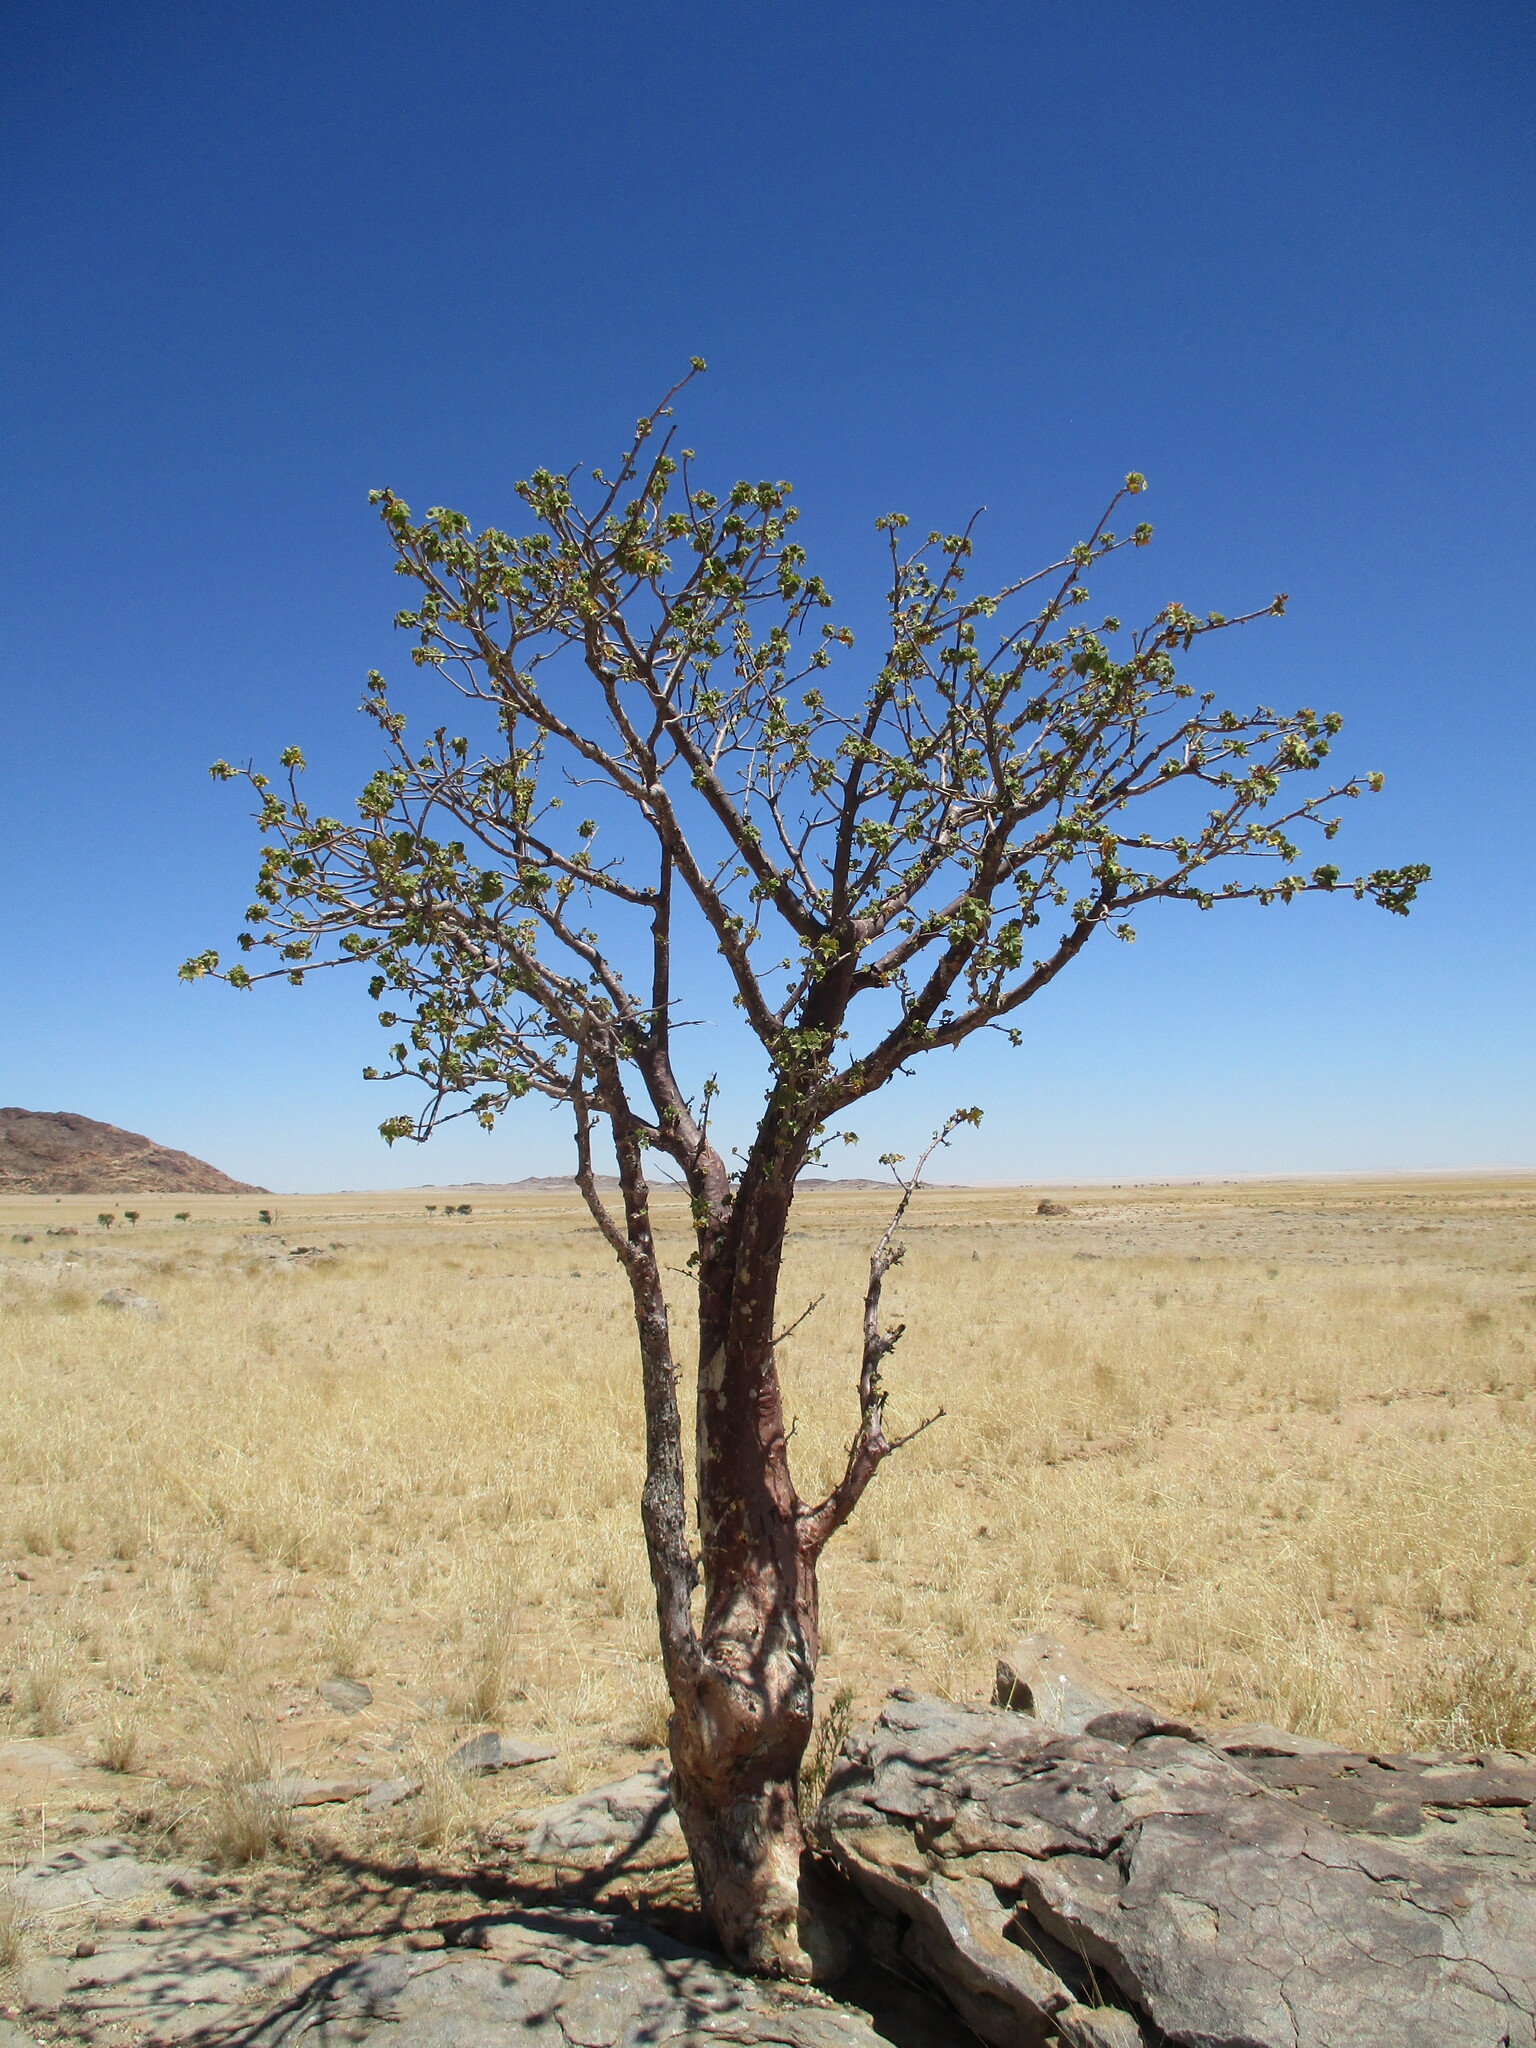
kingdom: Plantae
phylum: Tracheophyta
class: Magnoliopsida
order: Malvales
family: Malvaceae
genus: Sterculia
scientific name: Sterculia africana
